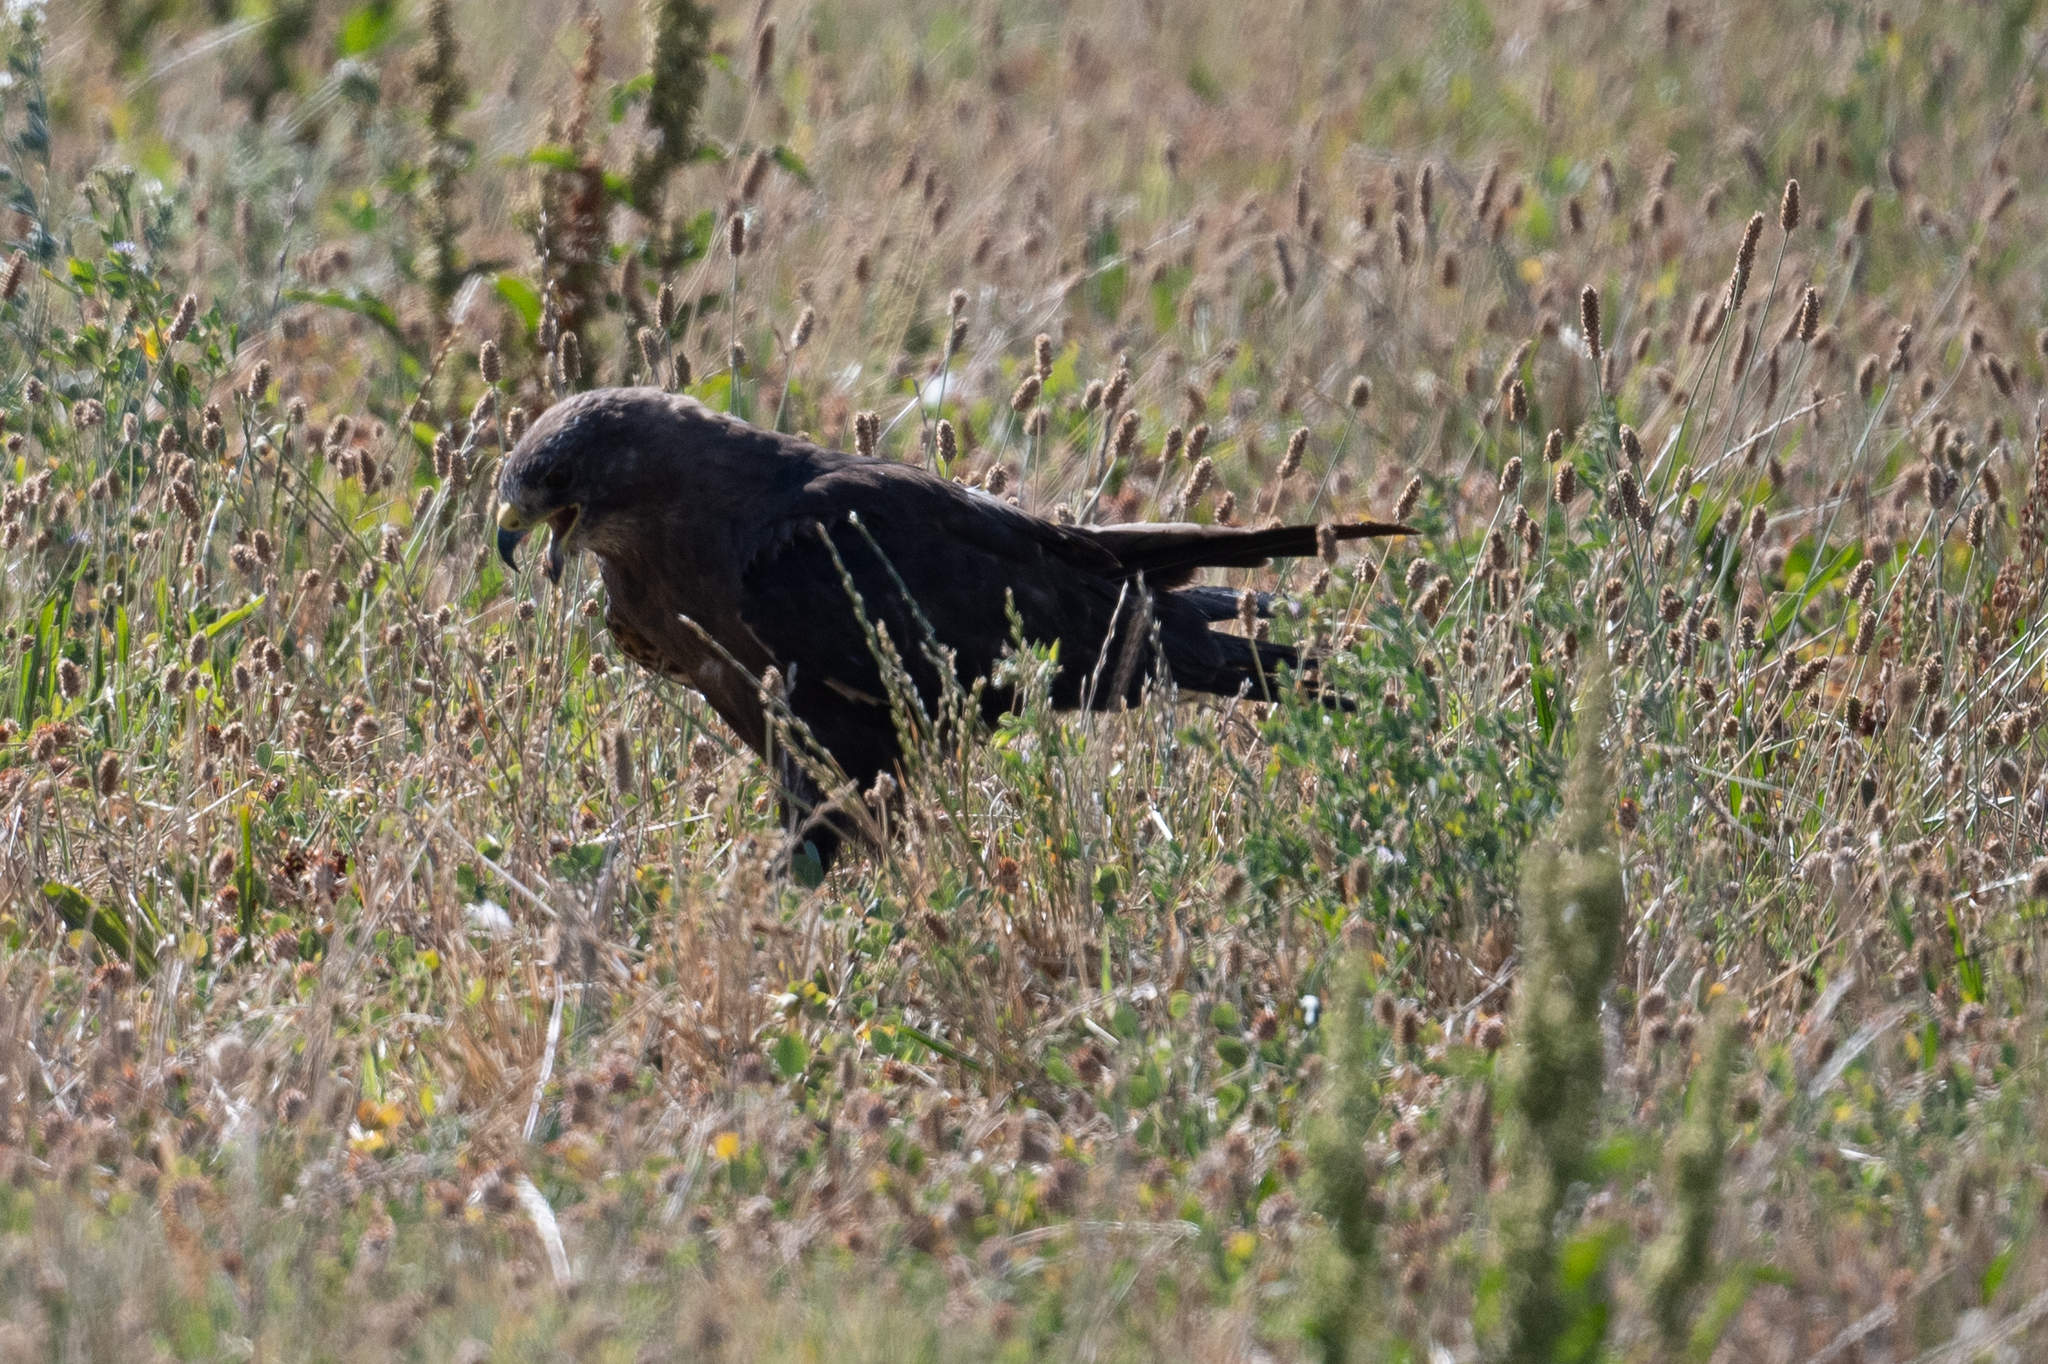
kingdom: Animalia
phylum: Chordata
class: Aves
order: Accipitriformes
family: Accipitridae
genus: Buteo
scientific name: Buteo swainsoni
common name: Swainson's hawk
